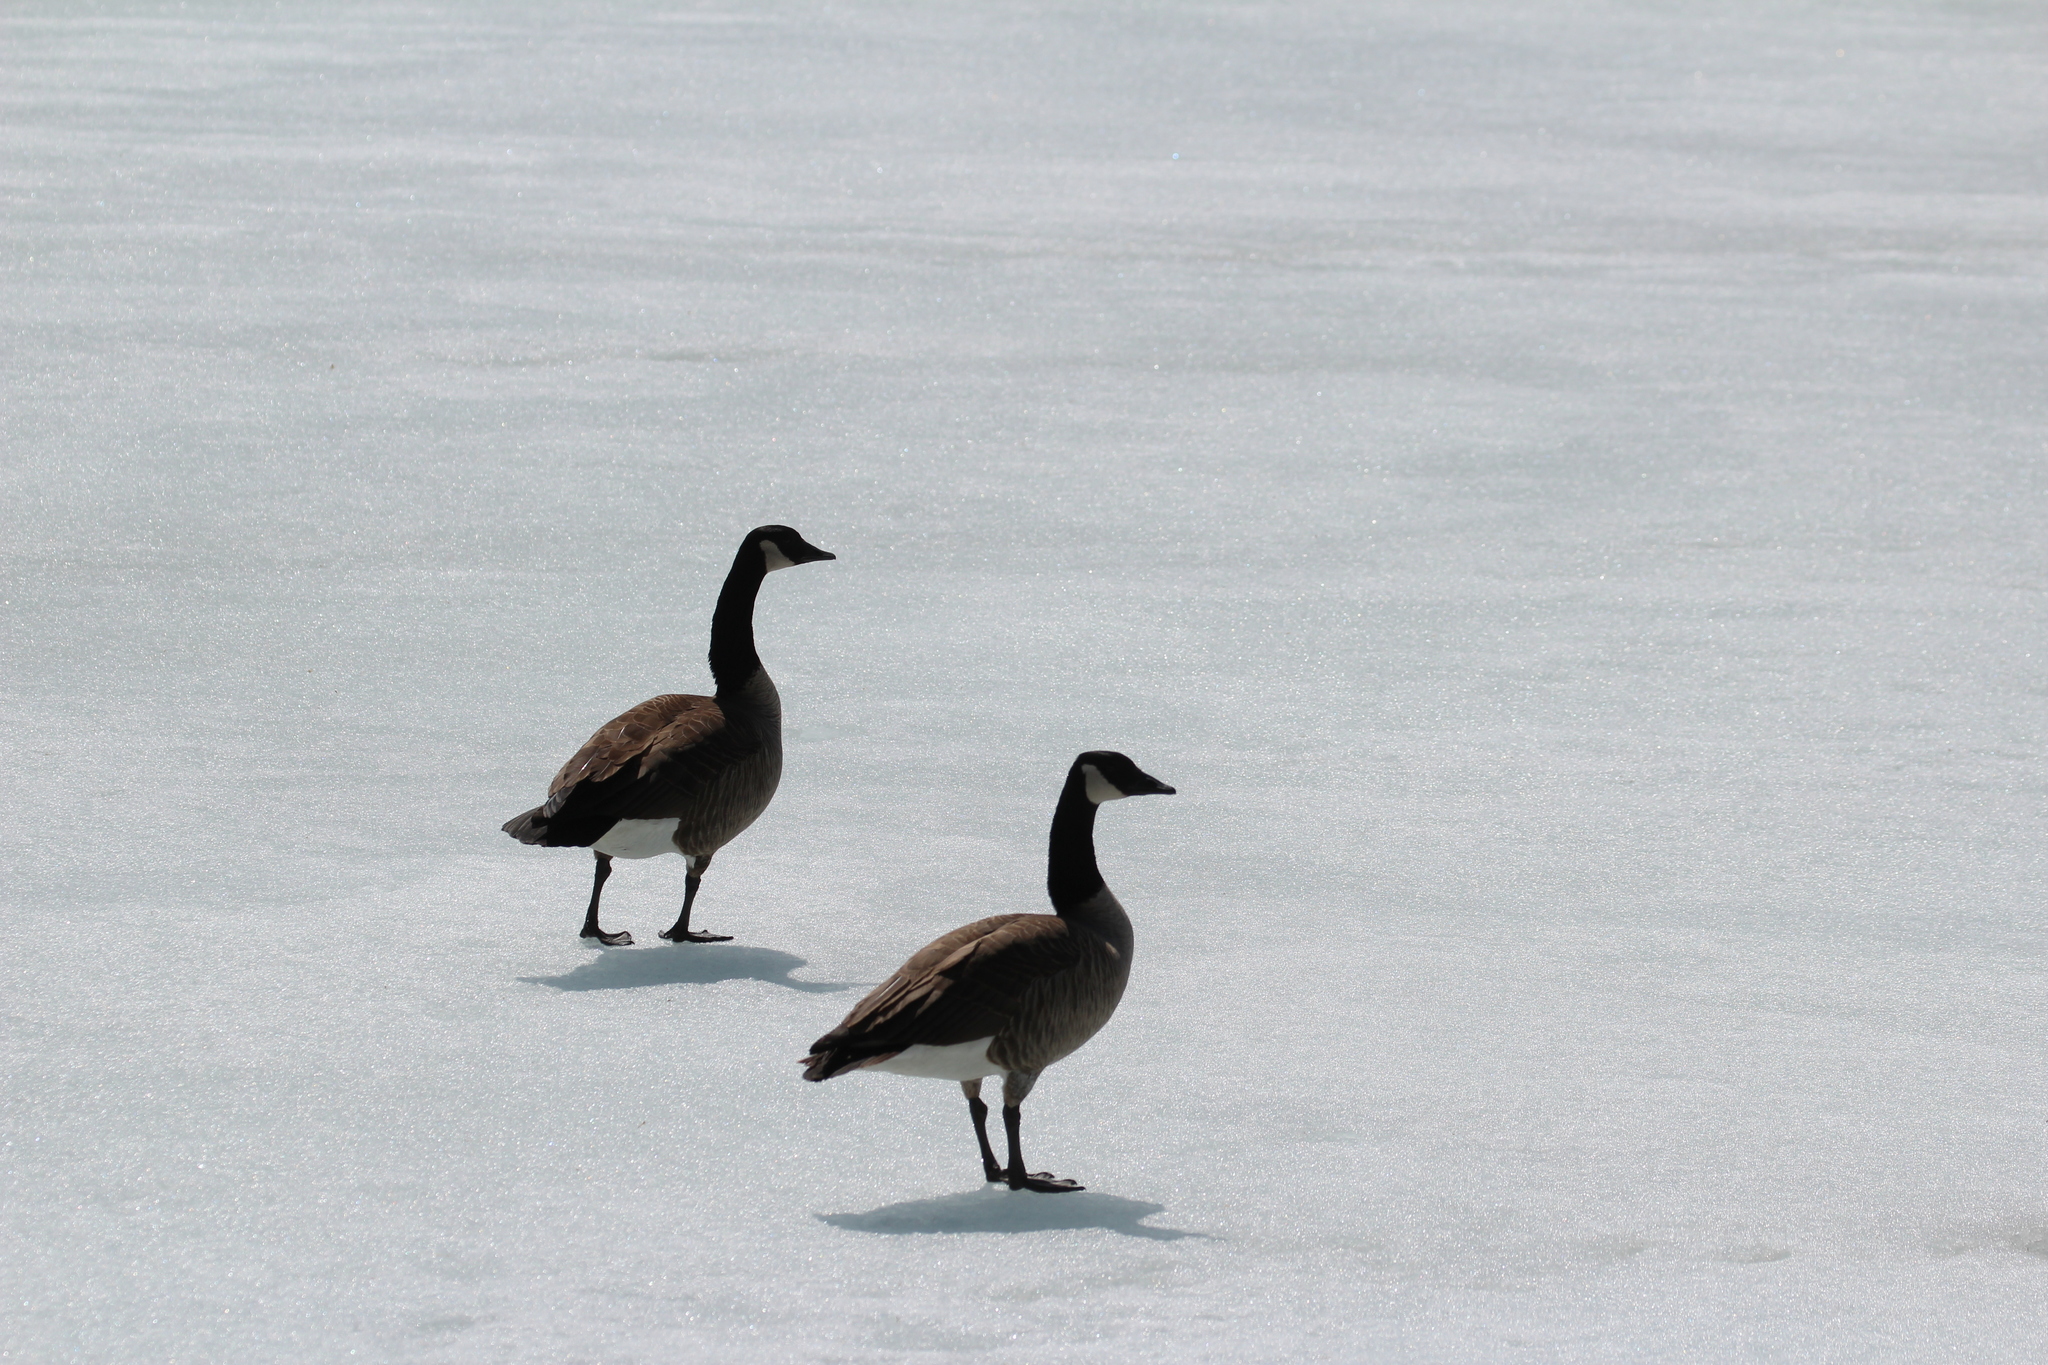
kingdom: Animalia
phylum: Chordata
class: Aves
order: Anseriformes
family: Anatidae
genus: Branta
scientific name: Branta canadensis
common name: Canada goose
